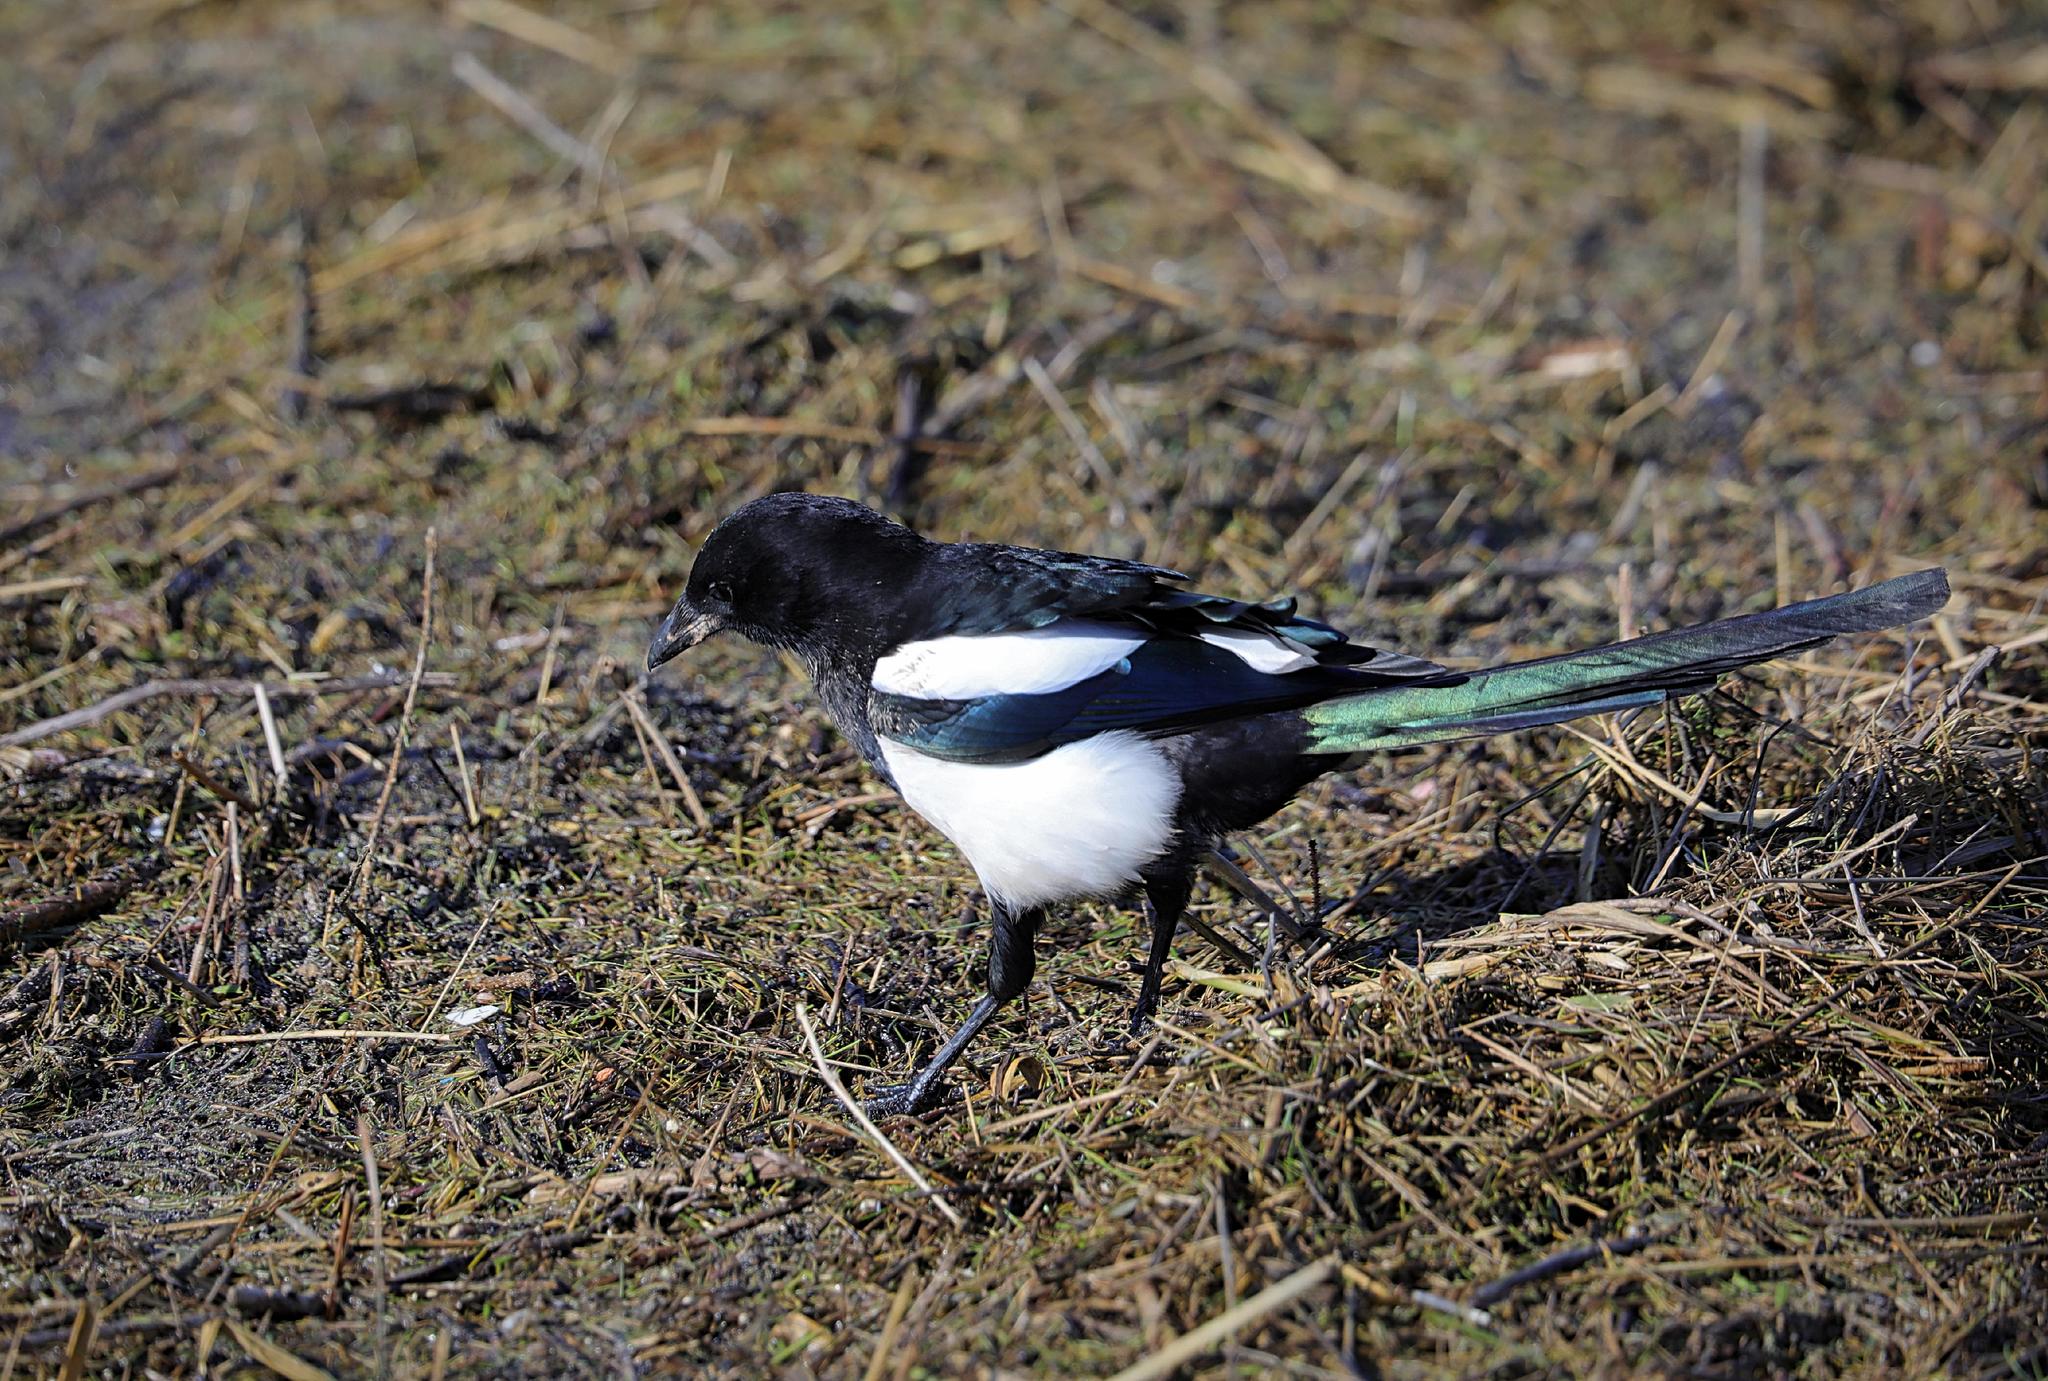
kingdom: Animalia
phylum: Chordata
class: Aves
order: Passeriformes
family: Corvidae
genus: Pica
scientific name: Pica pica
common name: Eurasian magpie
